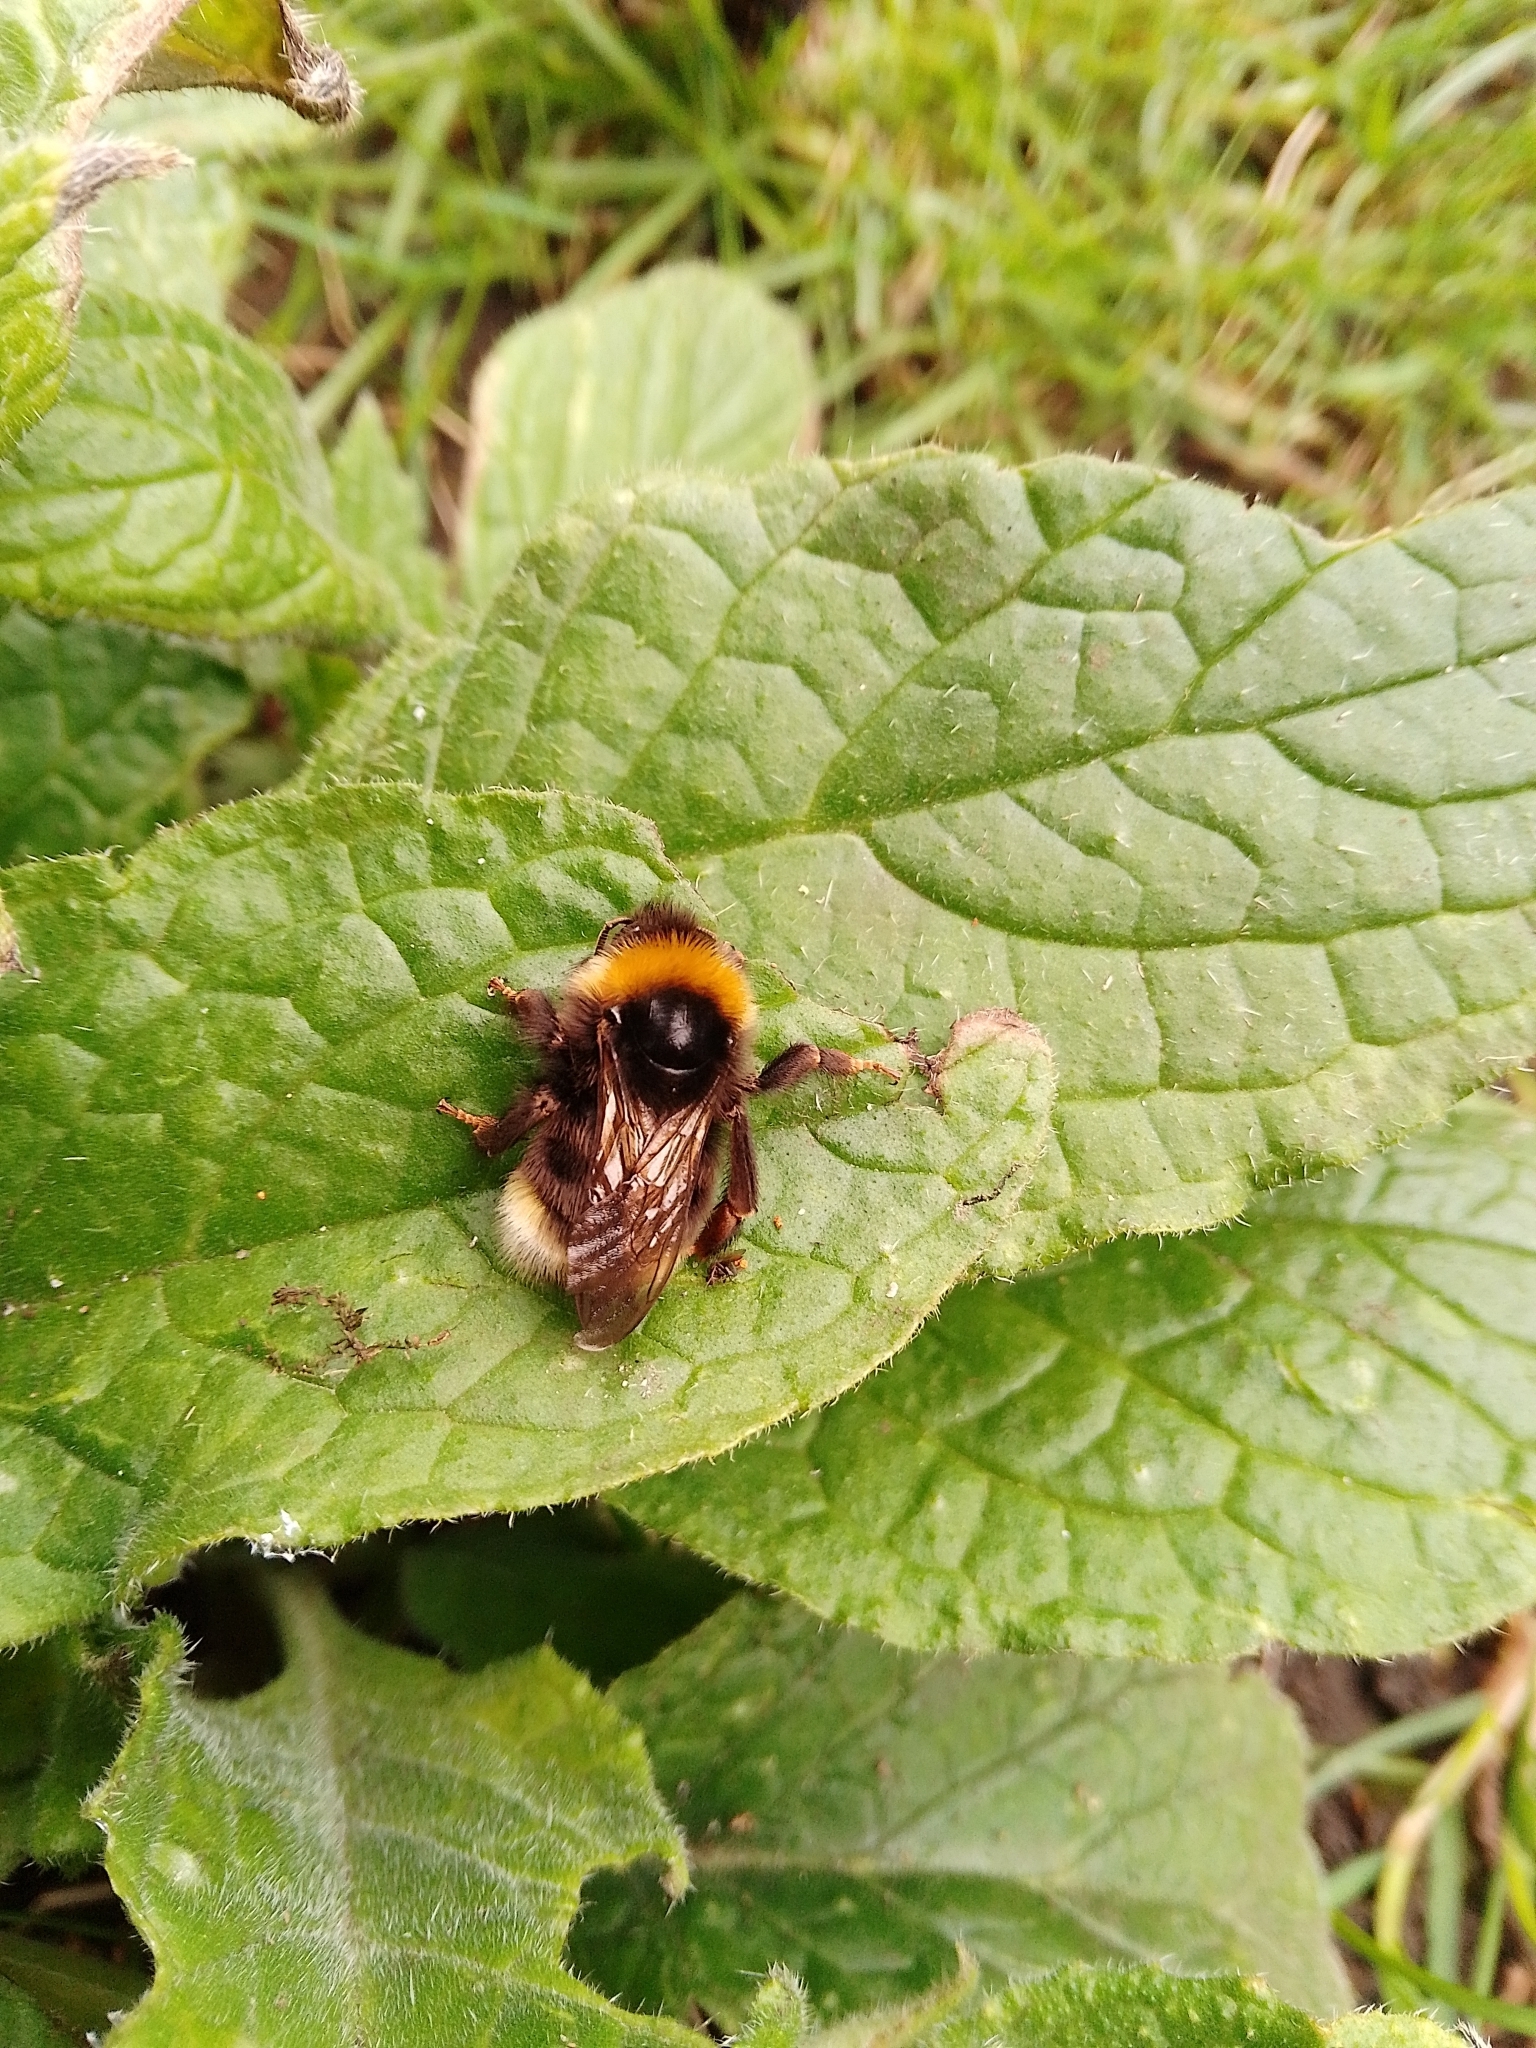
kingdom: Animalia
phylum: Arthropoda
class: Insecta
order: Hymenoptera
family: Apidae
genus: Bombus
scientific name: Bombus bohemicus
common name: Gypsy cuckoo bee
